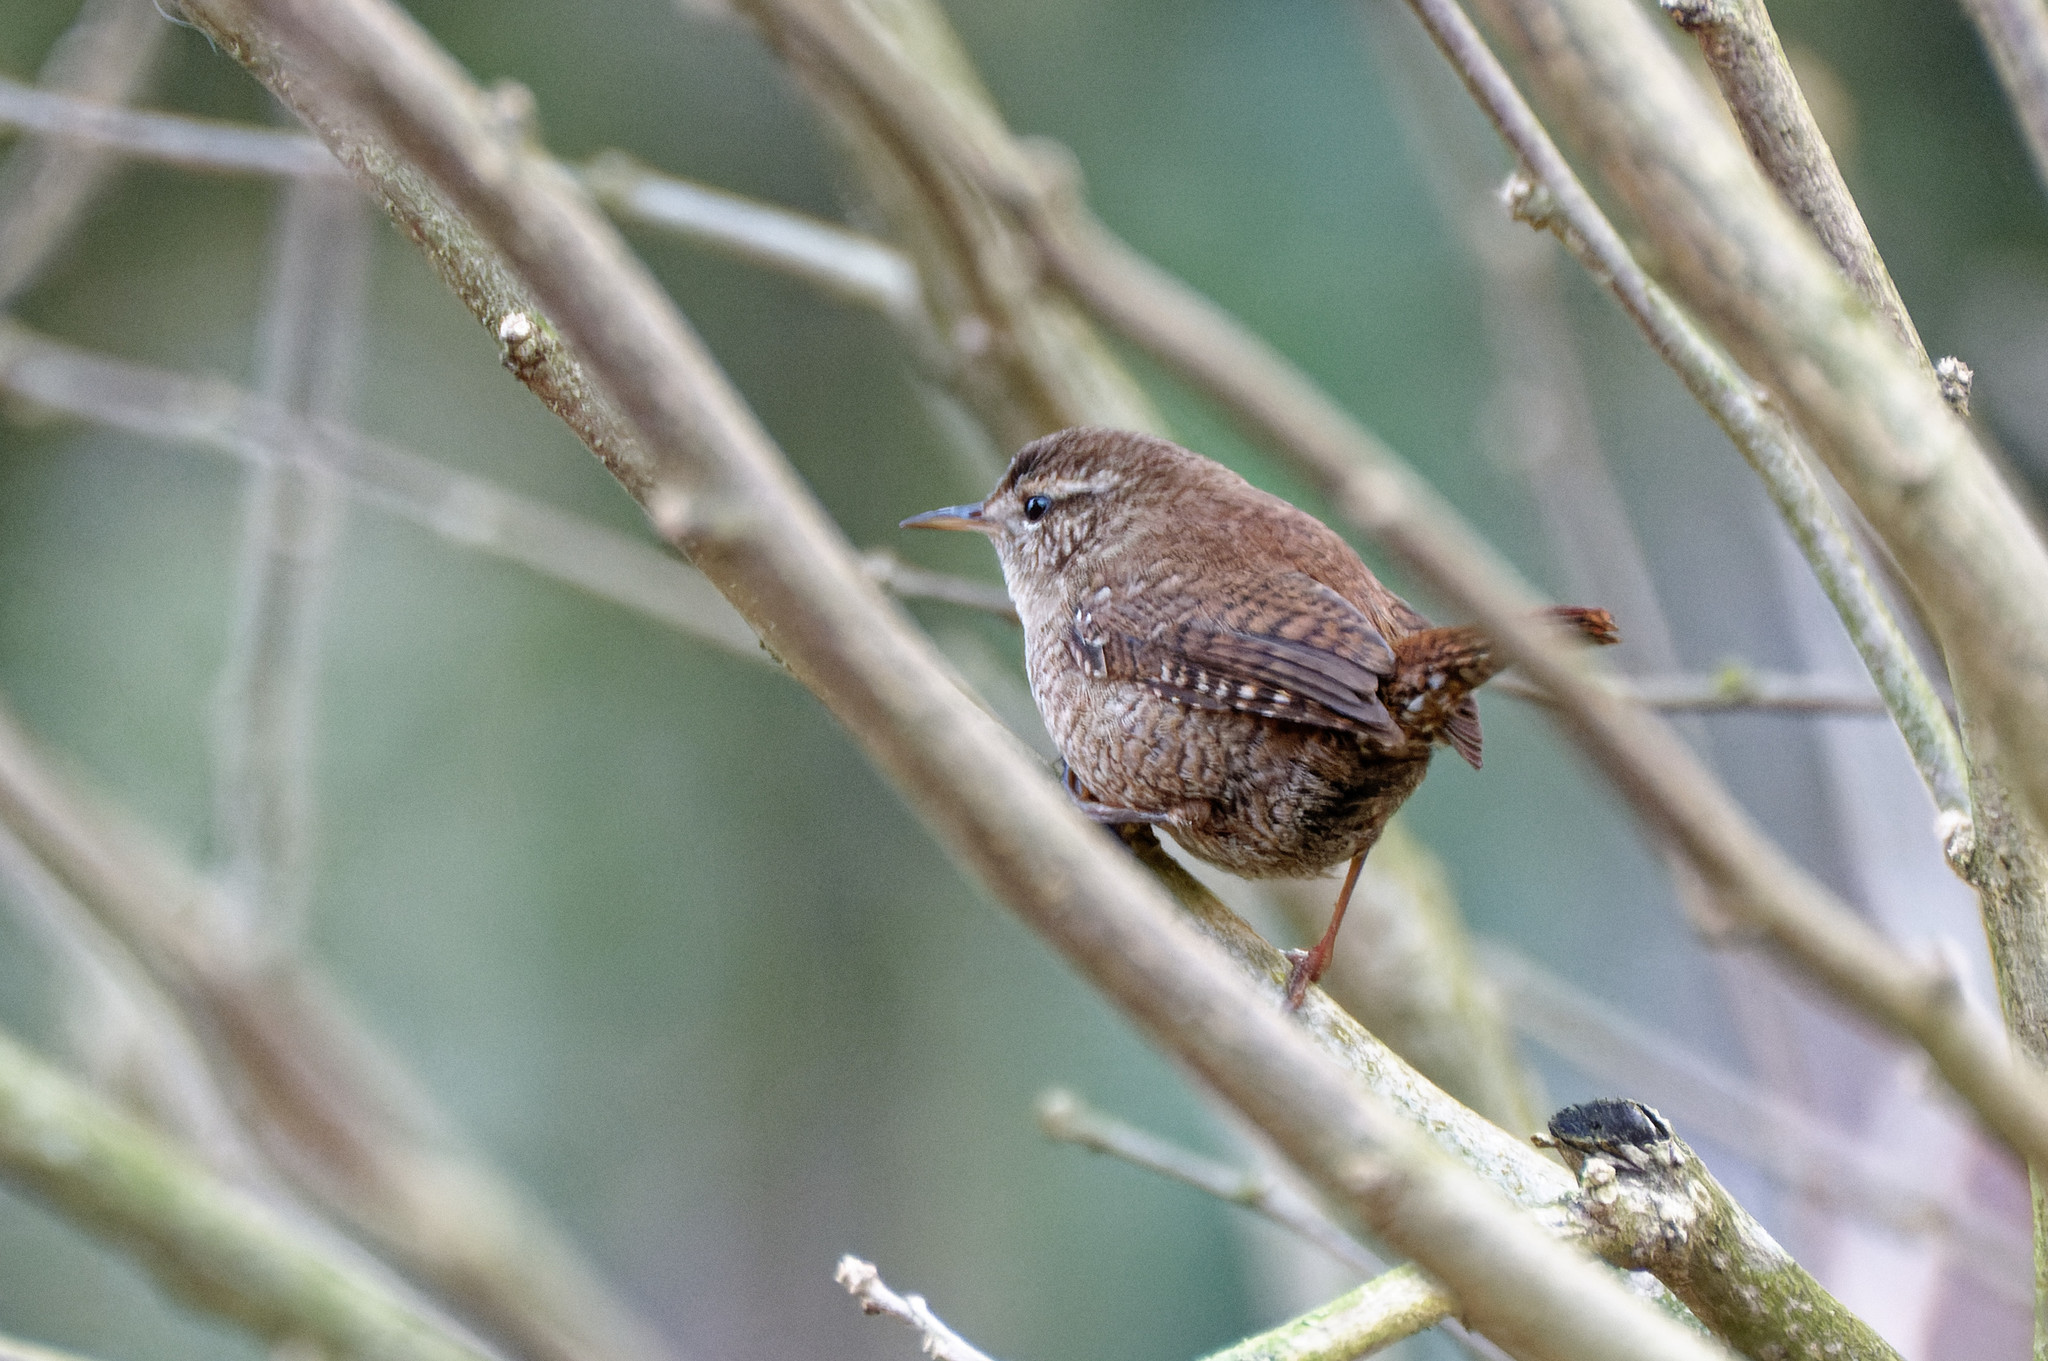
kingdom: Animalia
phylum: Chordata
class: Aves
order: Passeriformes
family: Troglodytidae
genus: Troglodytes
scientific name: Troglodytes troglodytes
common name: Eurasian wren
